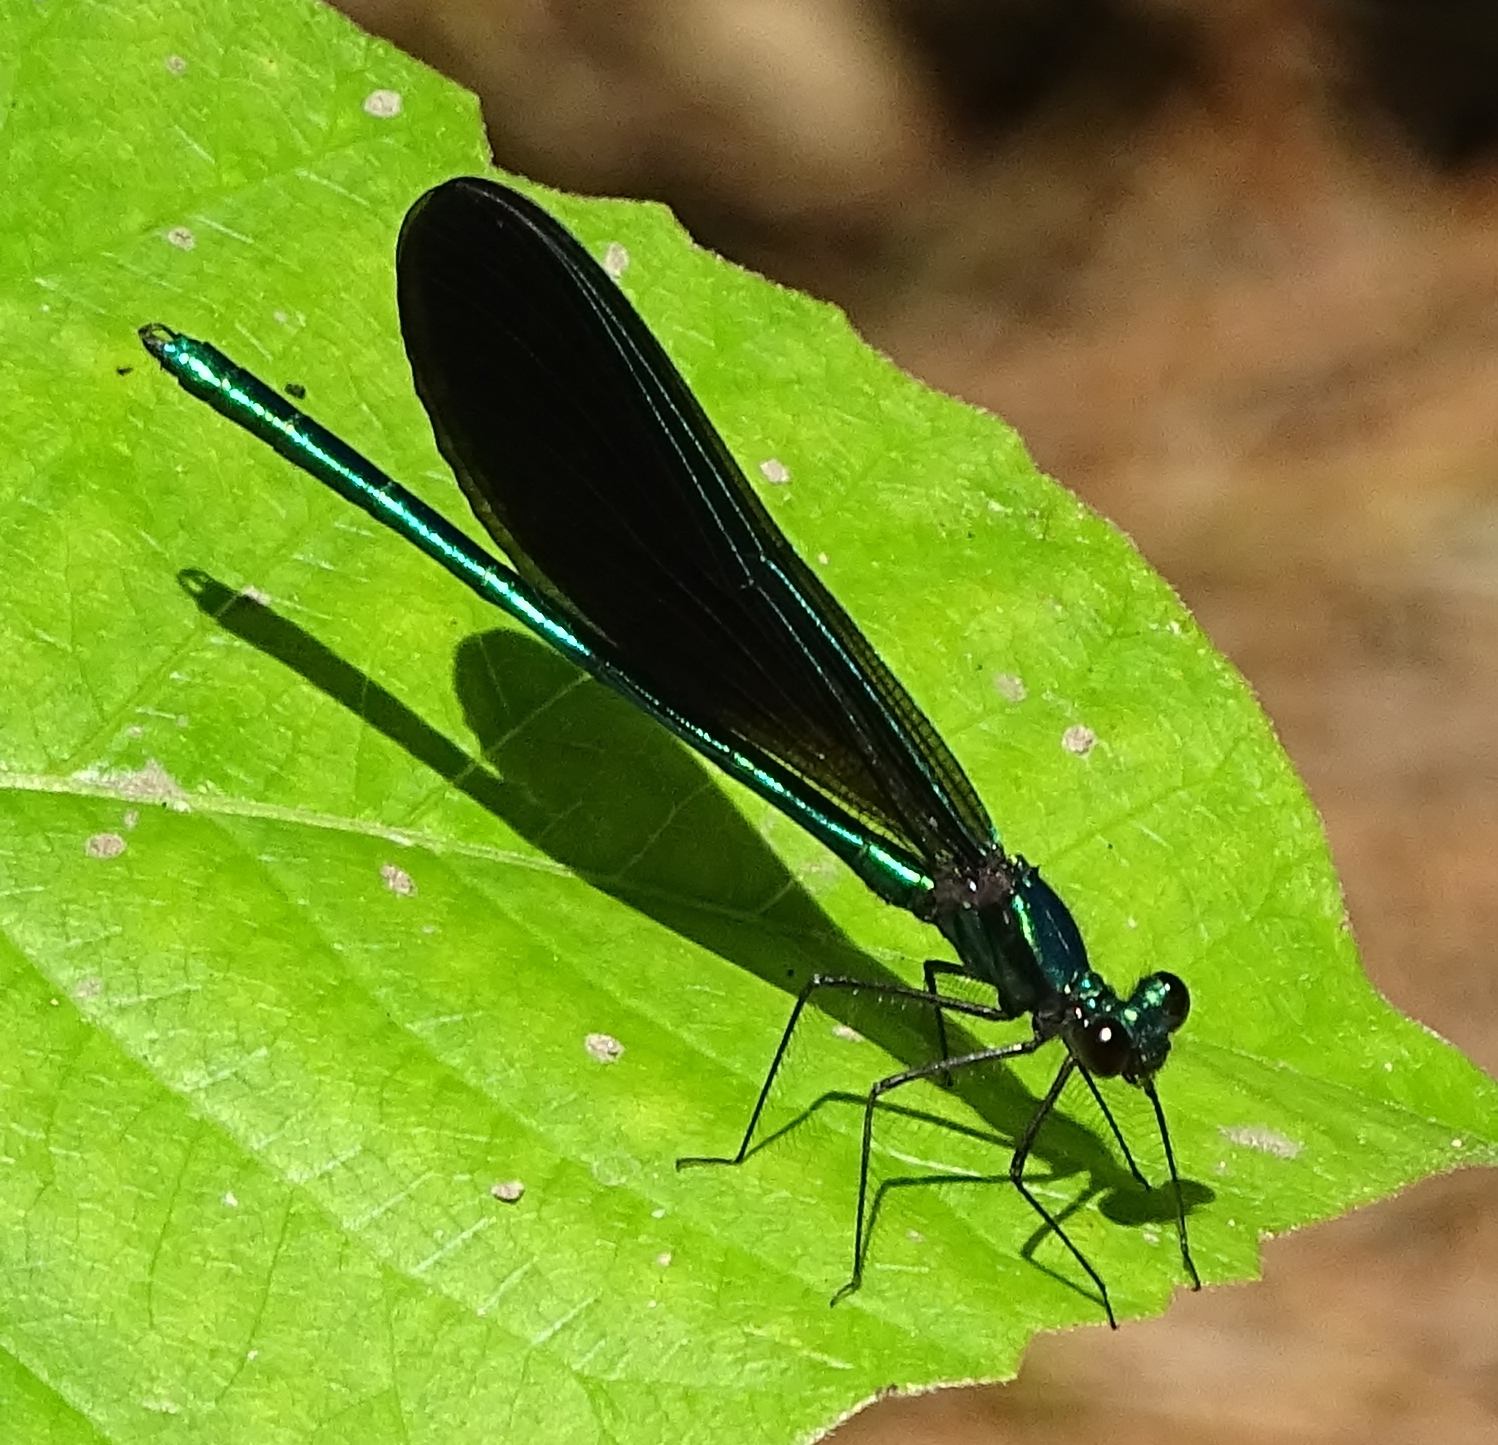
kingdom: Animalia
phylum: Arthropoda
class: Insecta
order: Odonata
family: Calopterygidae
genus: Calopteryx
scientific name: Calopteryx maculata
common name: Ebony jewelwing
